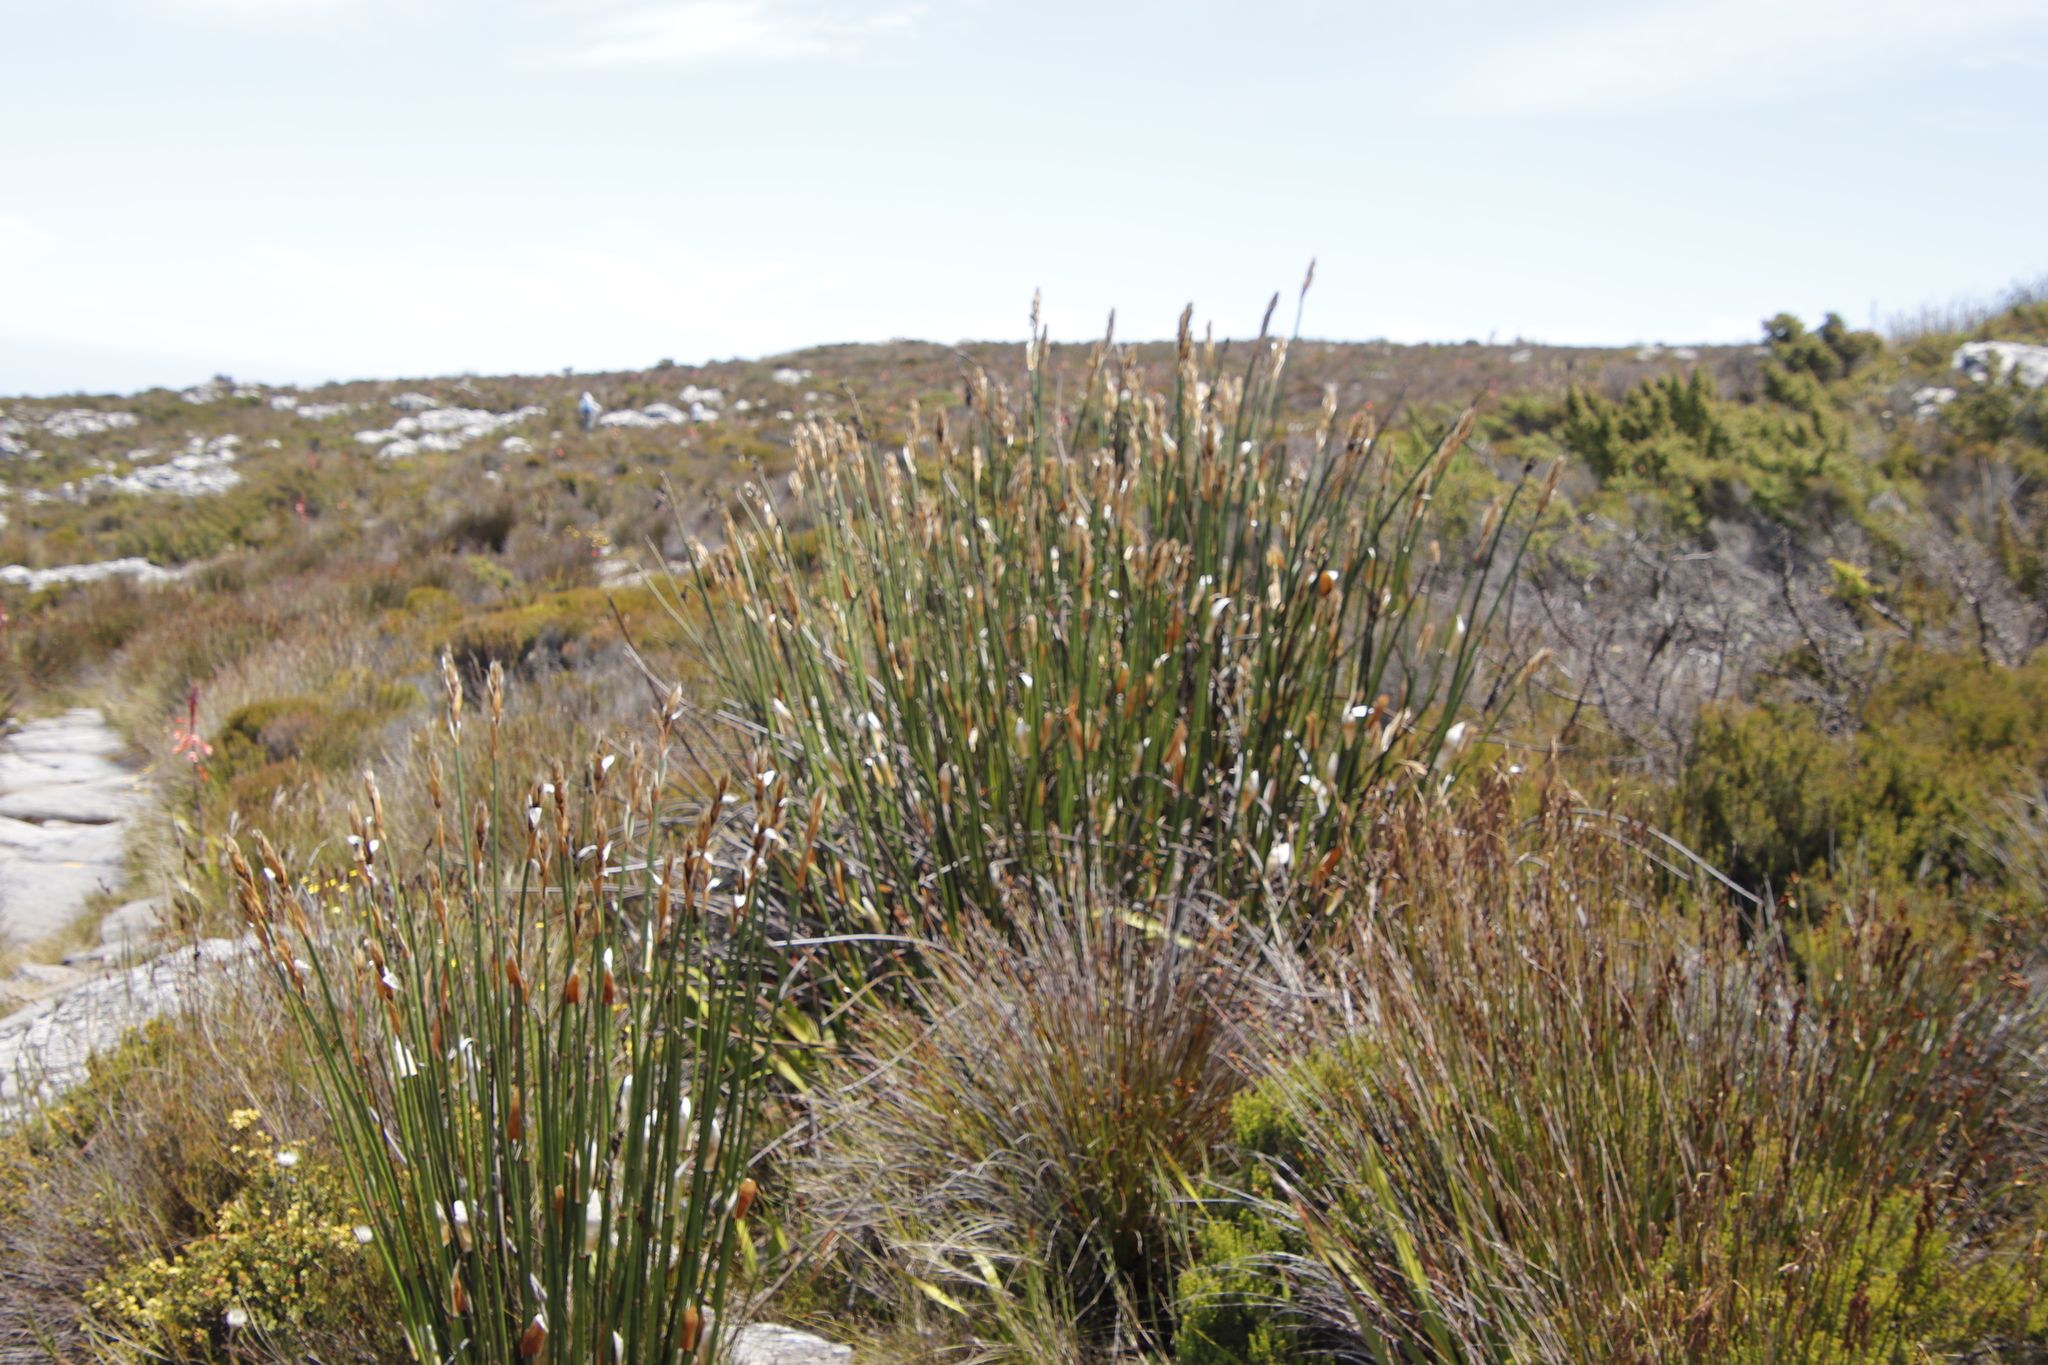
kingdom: Plantae
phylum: Tracheophyta
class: Liliopsida
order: Poales
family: Restionaceae
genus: Elegia
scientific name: Elegia mucronata
